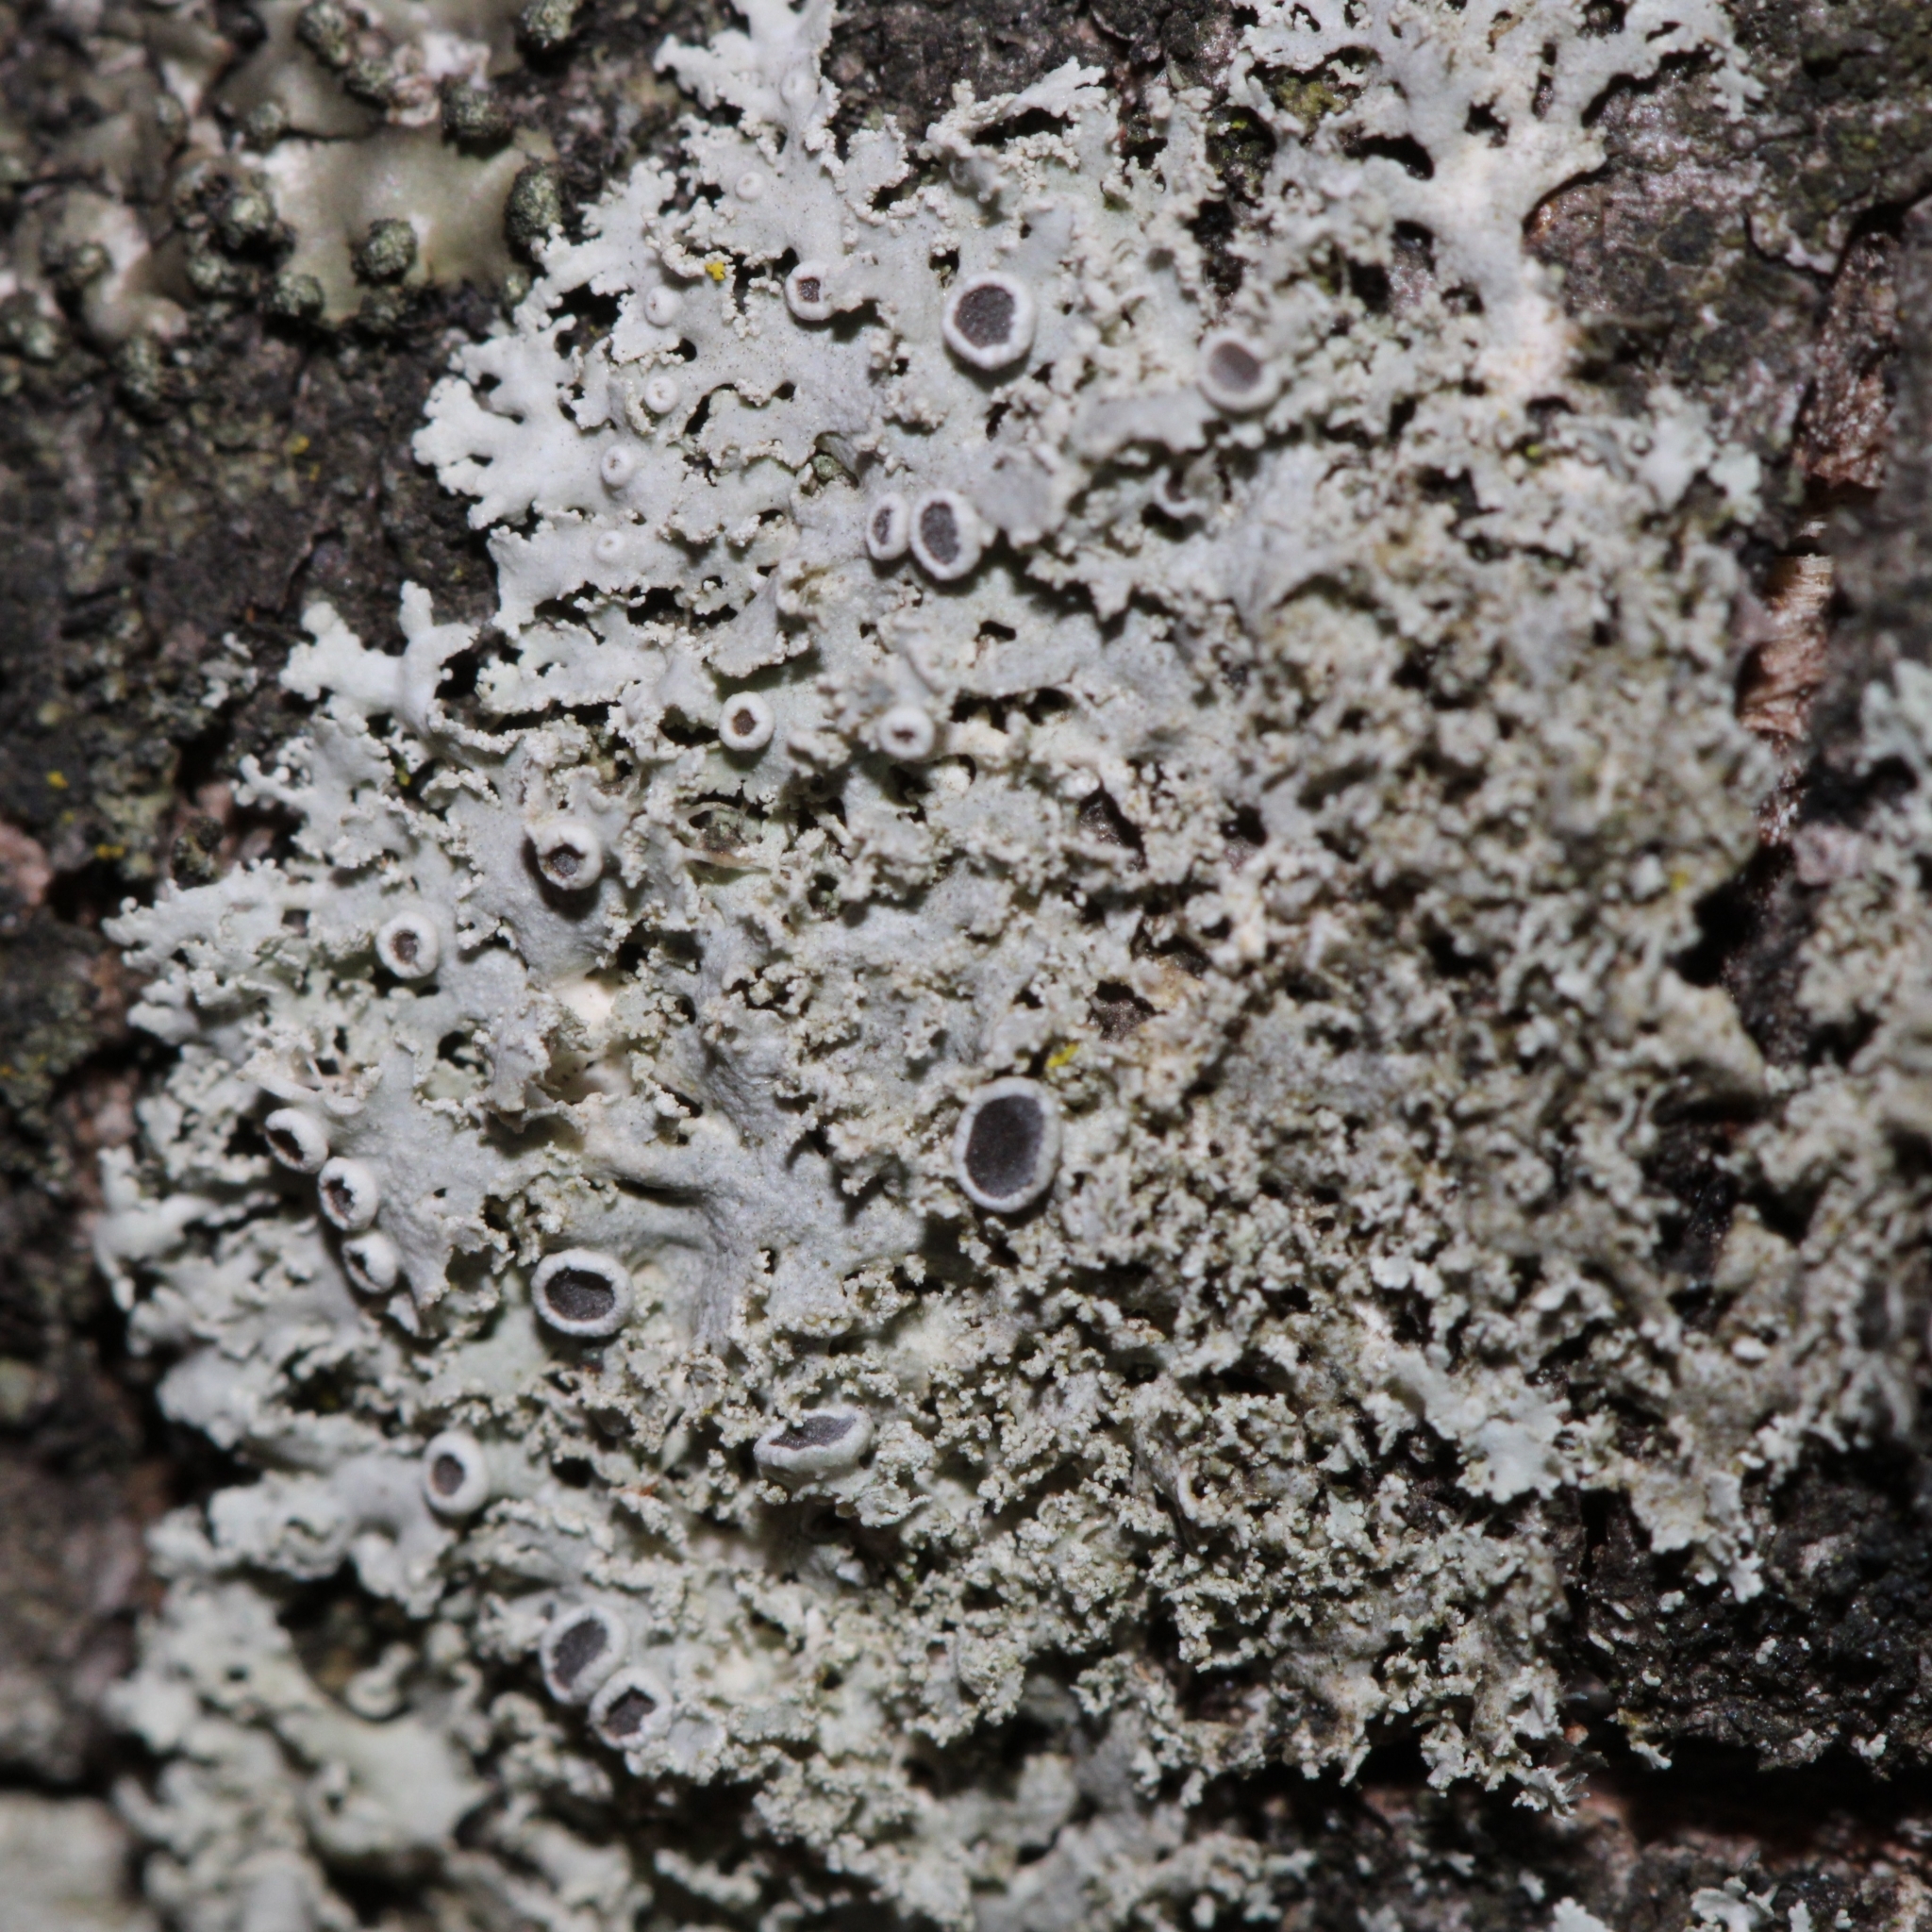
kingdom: Fungi
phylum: Ascomycota
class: Lecanoromycetes
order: Caliciales
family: Physciaceae
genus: Physcia
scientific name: Physcia millegrana
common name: Rosette lichen
